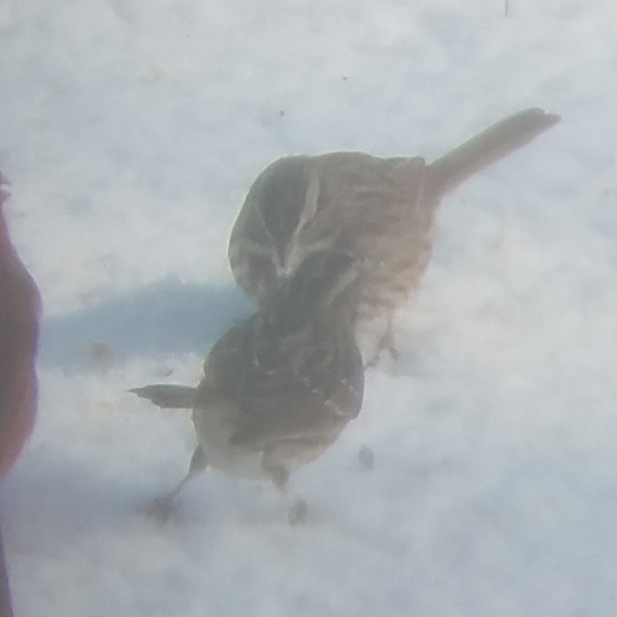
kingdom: Animalia
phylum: Chordata
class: Aves
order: Passeriformes
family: Passerellidae
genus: Zonotrichia
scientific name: Zonotrichia albicollis
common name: White-throated sparrow
